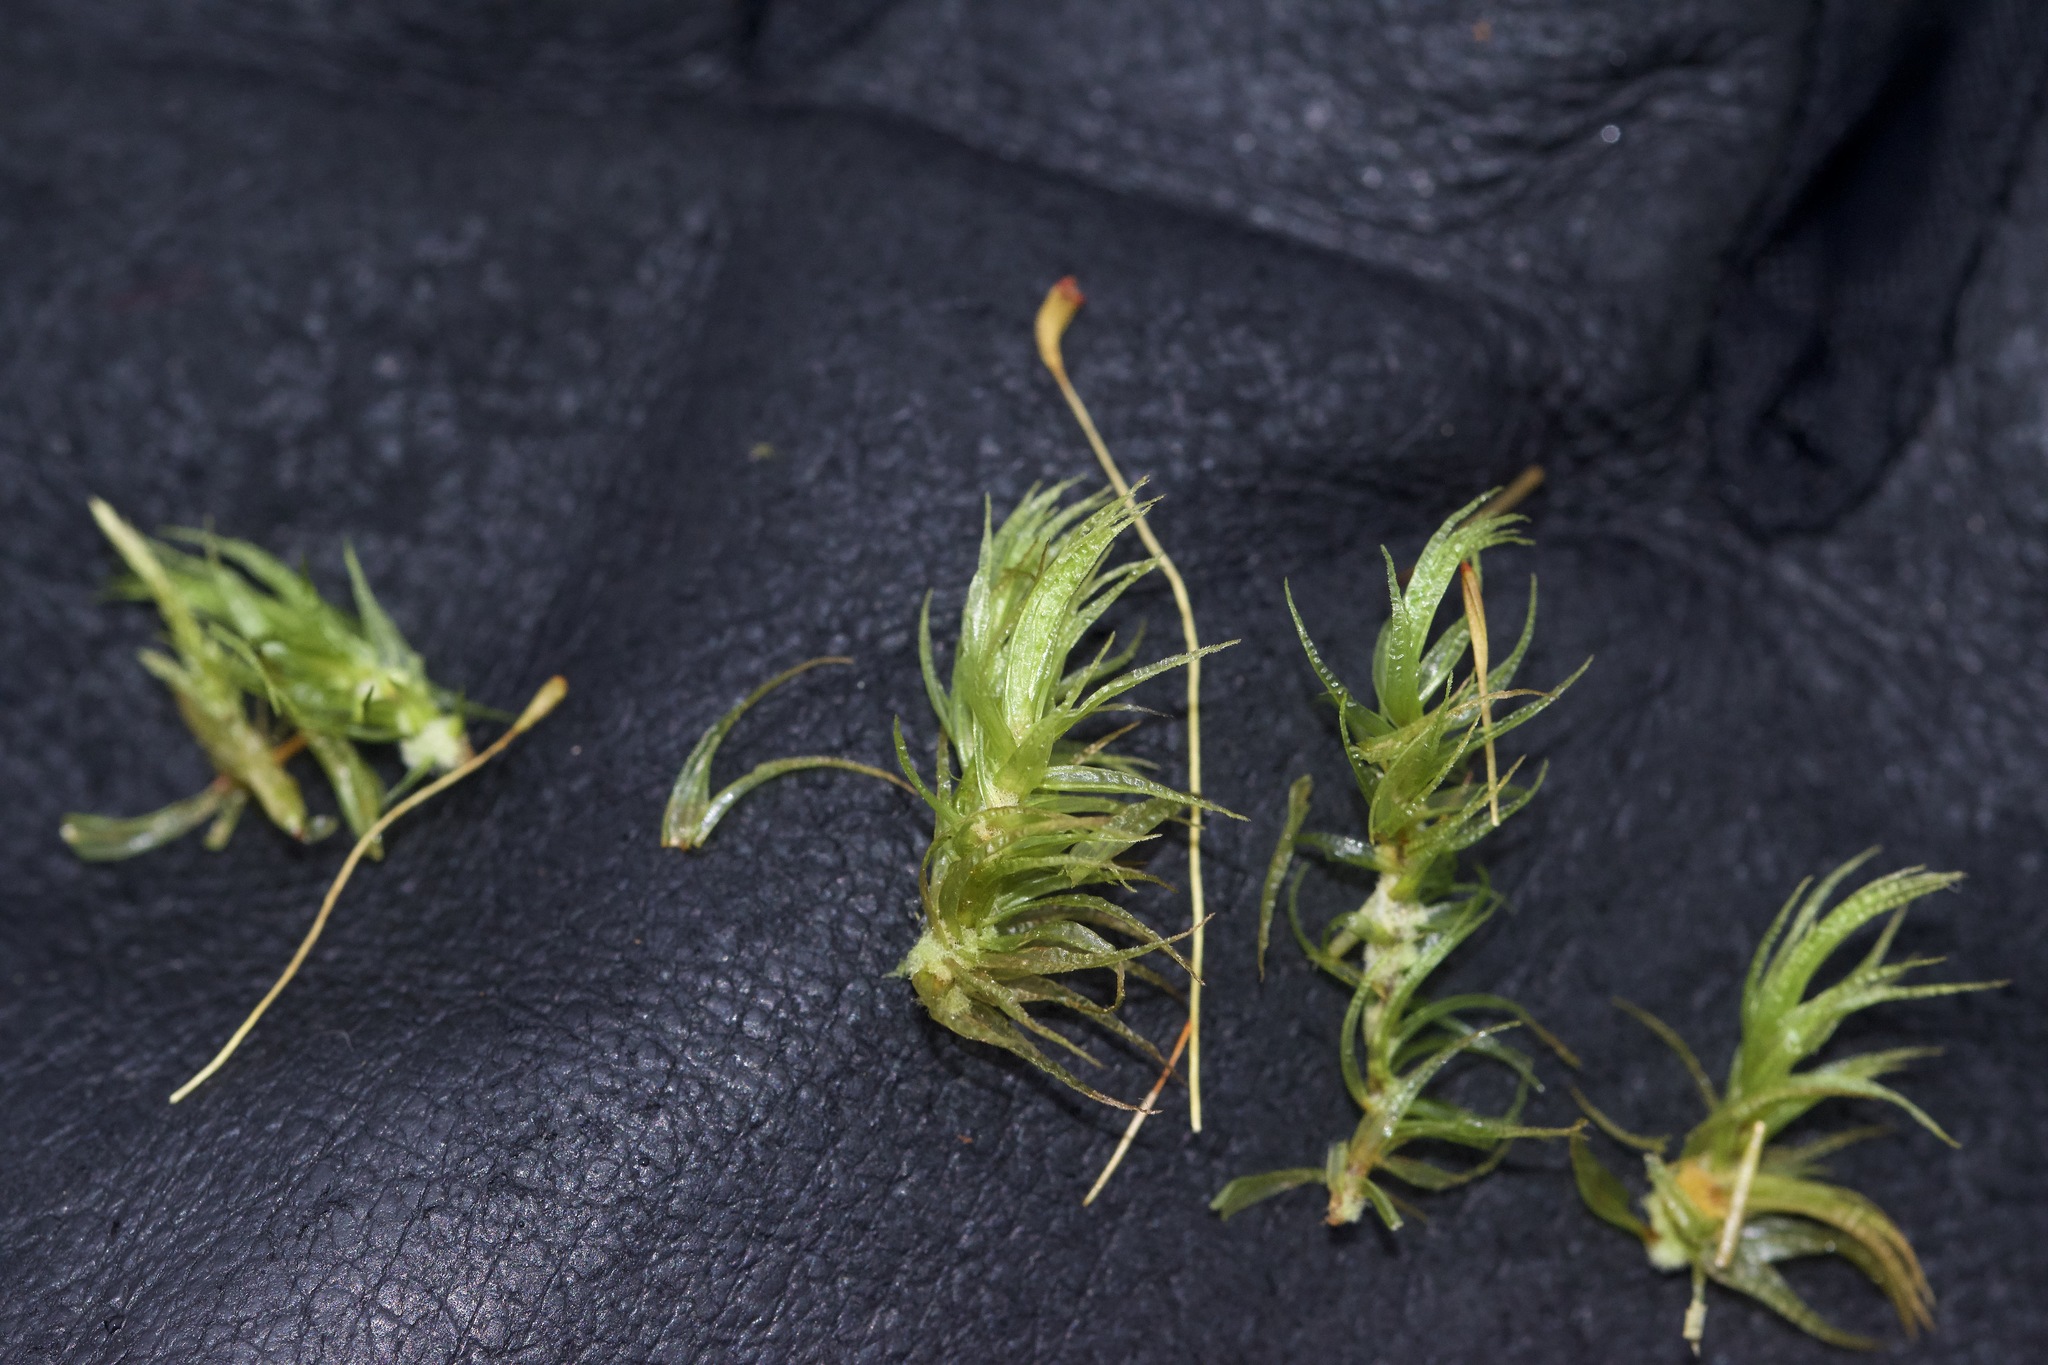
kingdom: Plantae
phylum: Bryophyta
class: Bryopsida
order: Dicranales
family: Dicranaceae
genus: Dicranum
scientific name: Dicranum polysetum
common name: Rugose fork-moss
